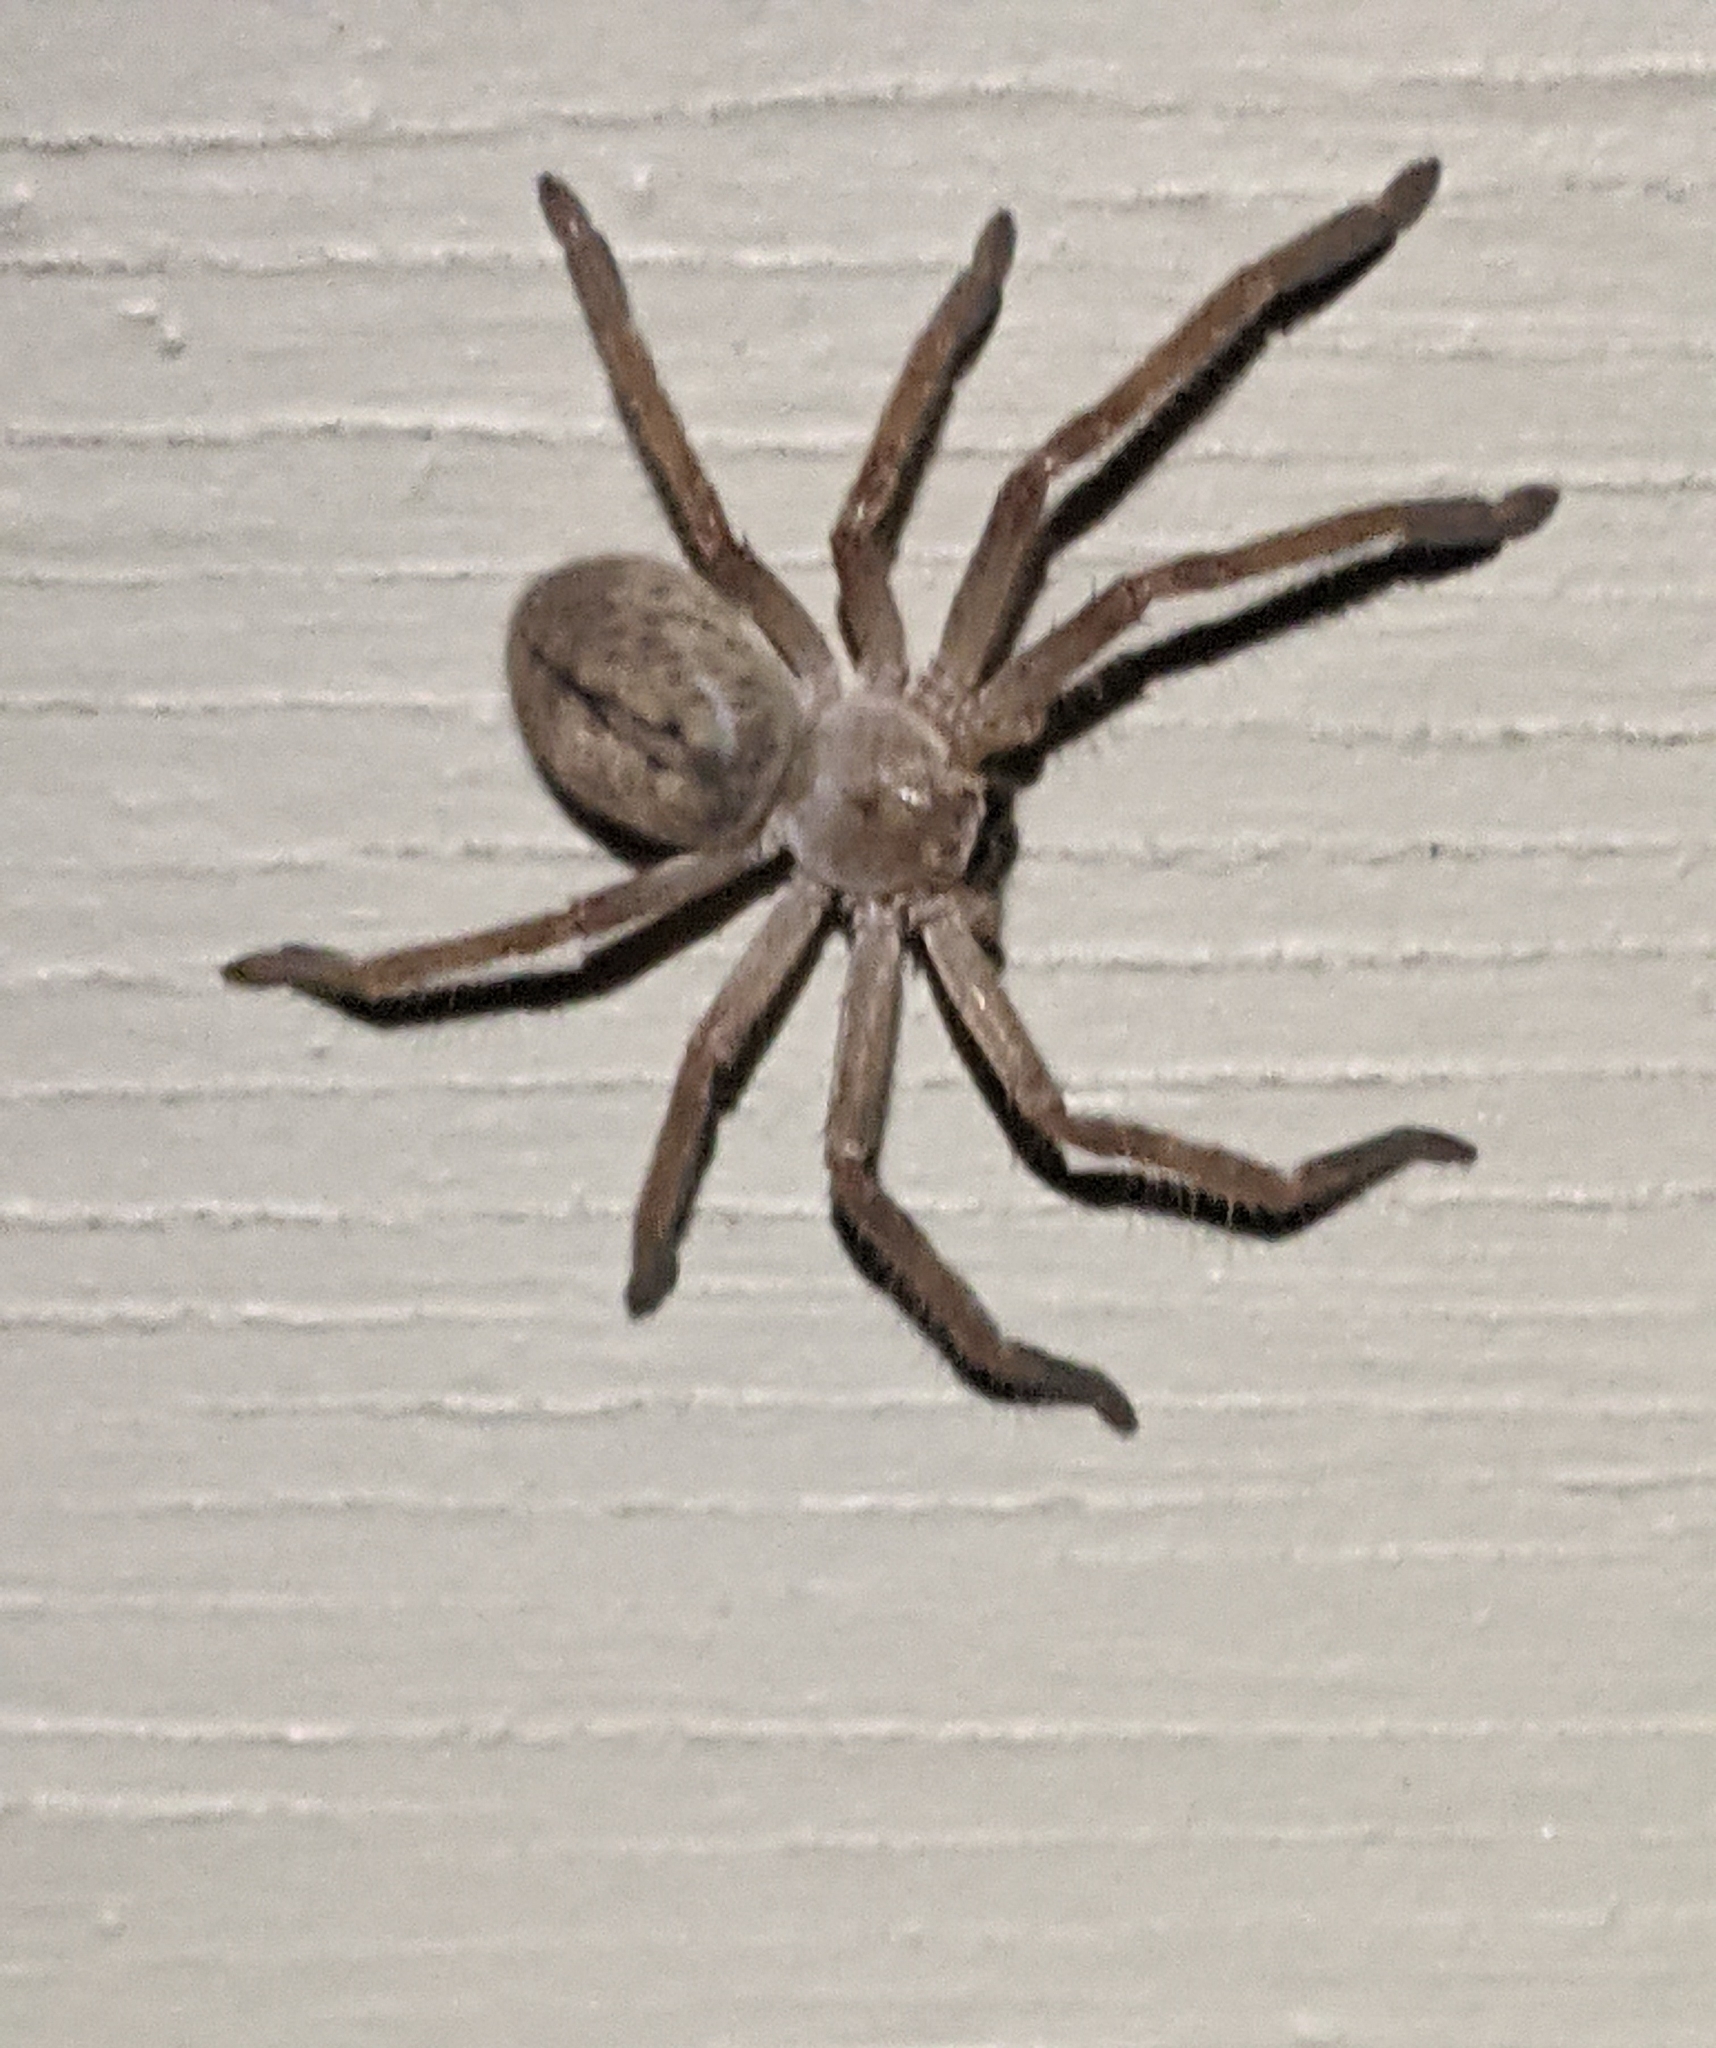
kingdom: Animalia
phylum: Arthropoda
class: Arachnida
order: Araneae
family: Sparassidae
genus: Olios
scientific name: Olios giganteus
